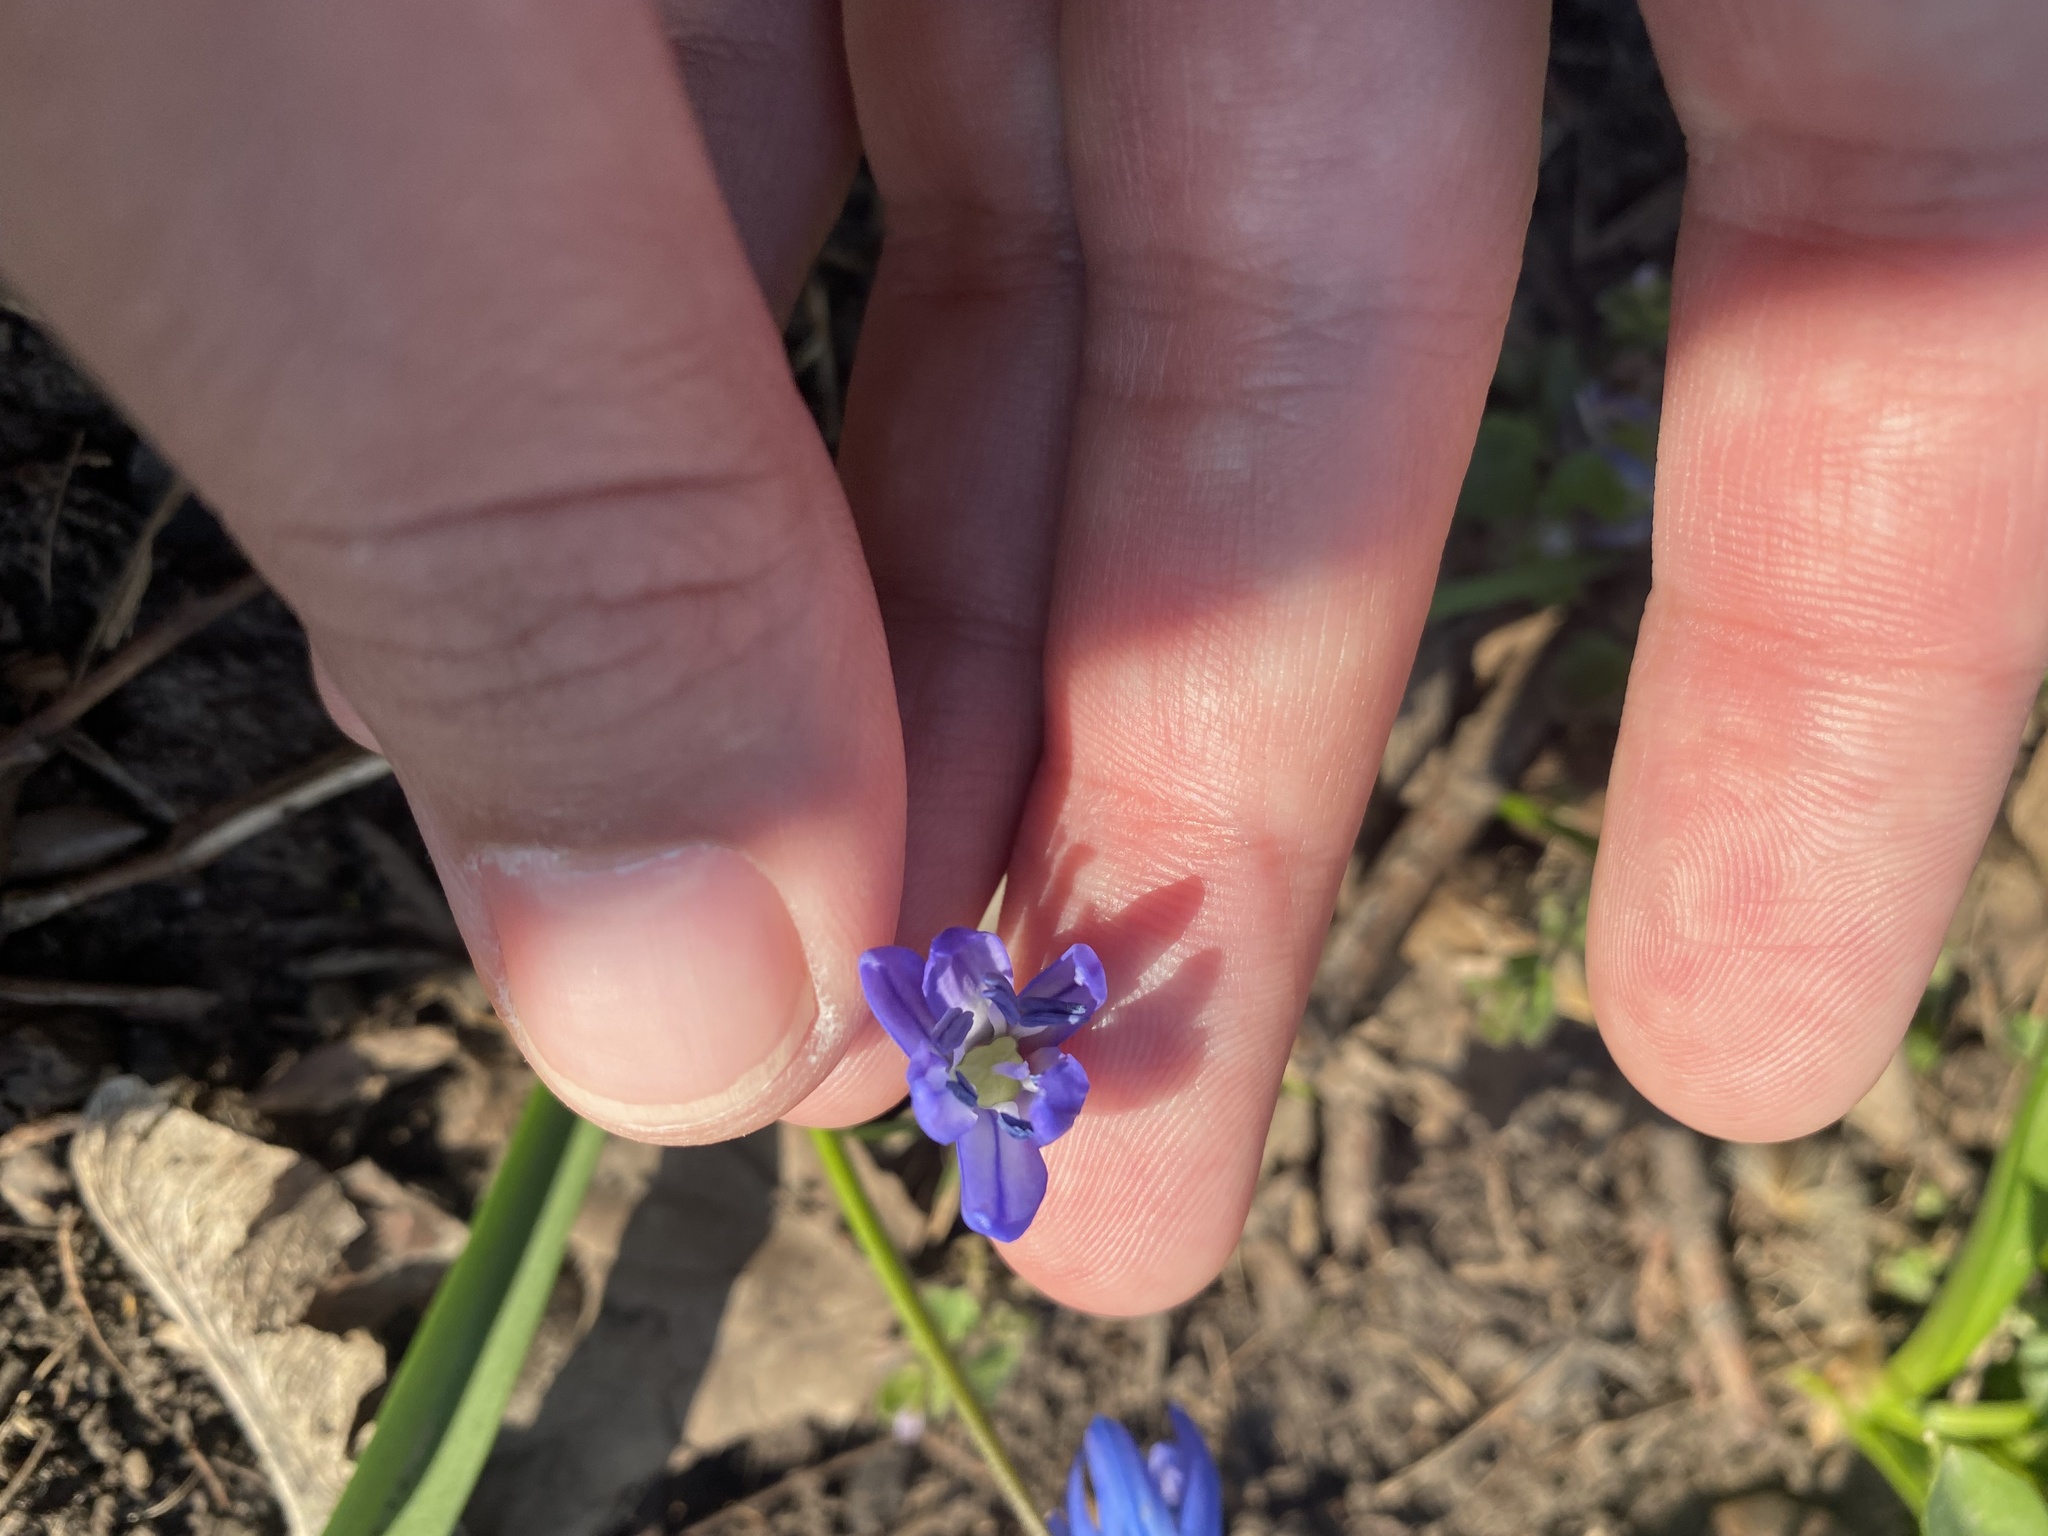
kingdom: Plantae
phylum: Tracheophyta
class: Liliopsida
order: Asparagales
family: Asparagaceae
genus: Scilla
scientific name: Scilla siberica
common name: Siberian squill
